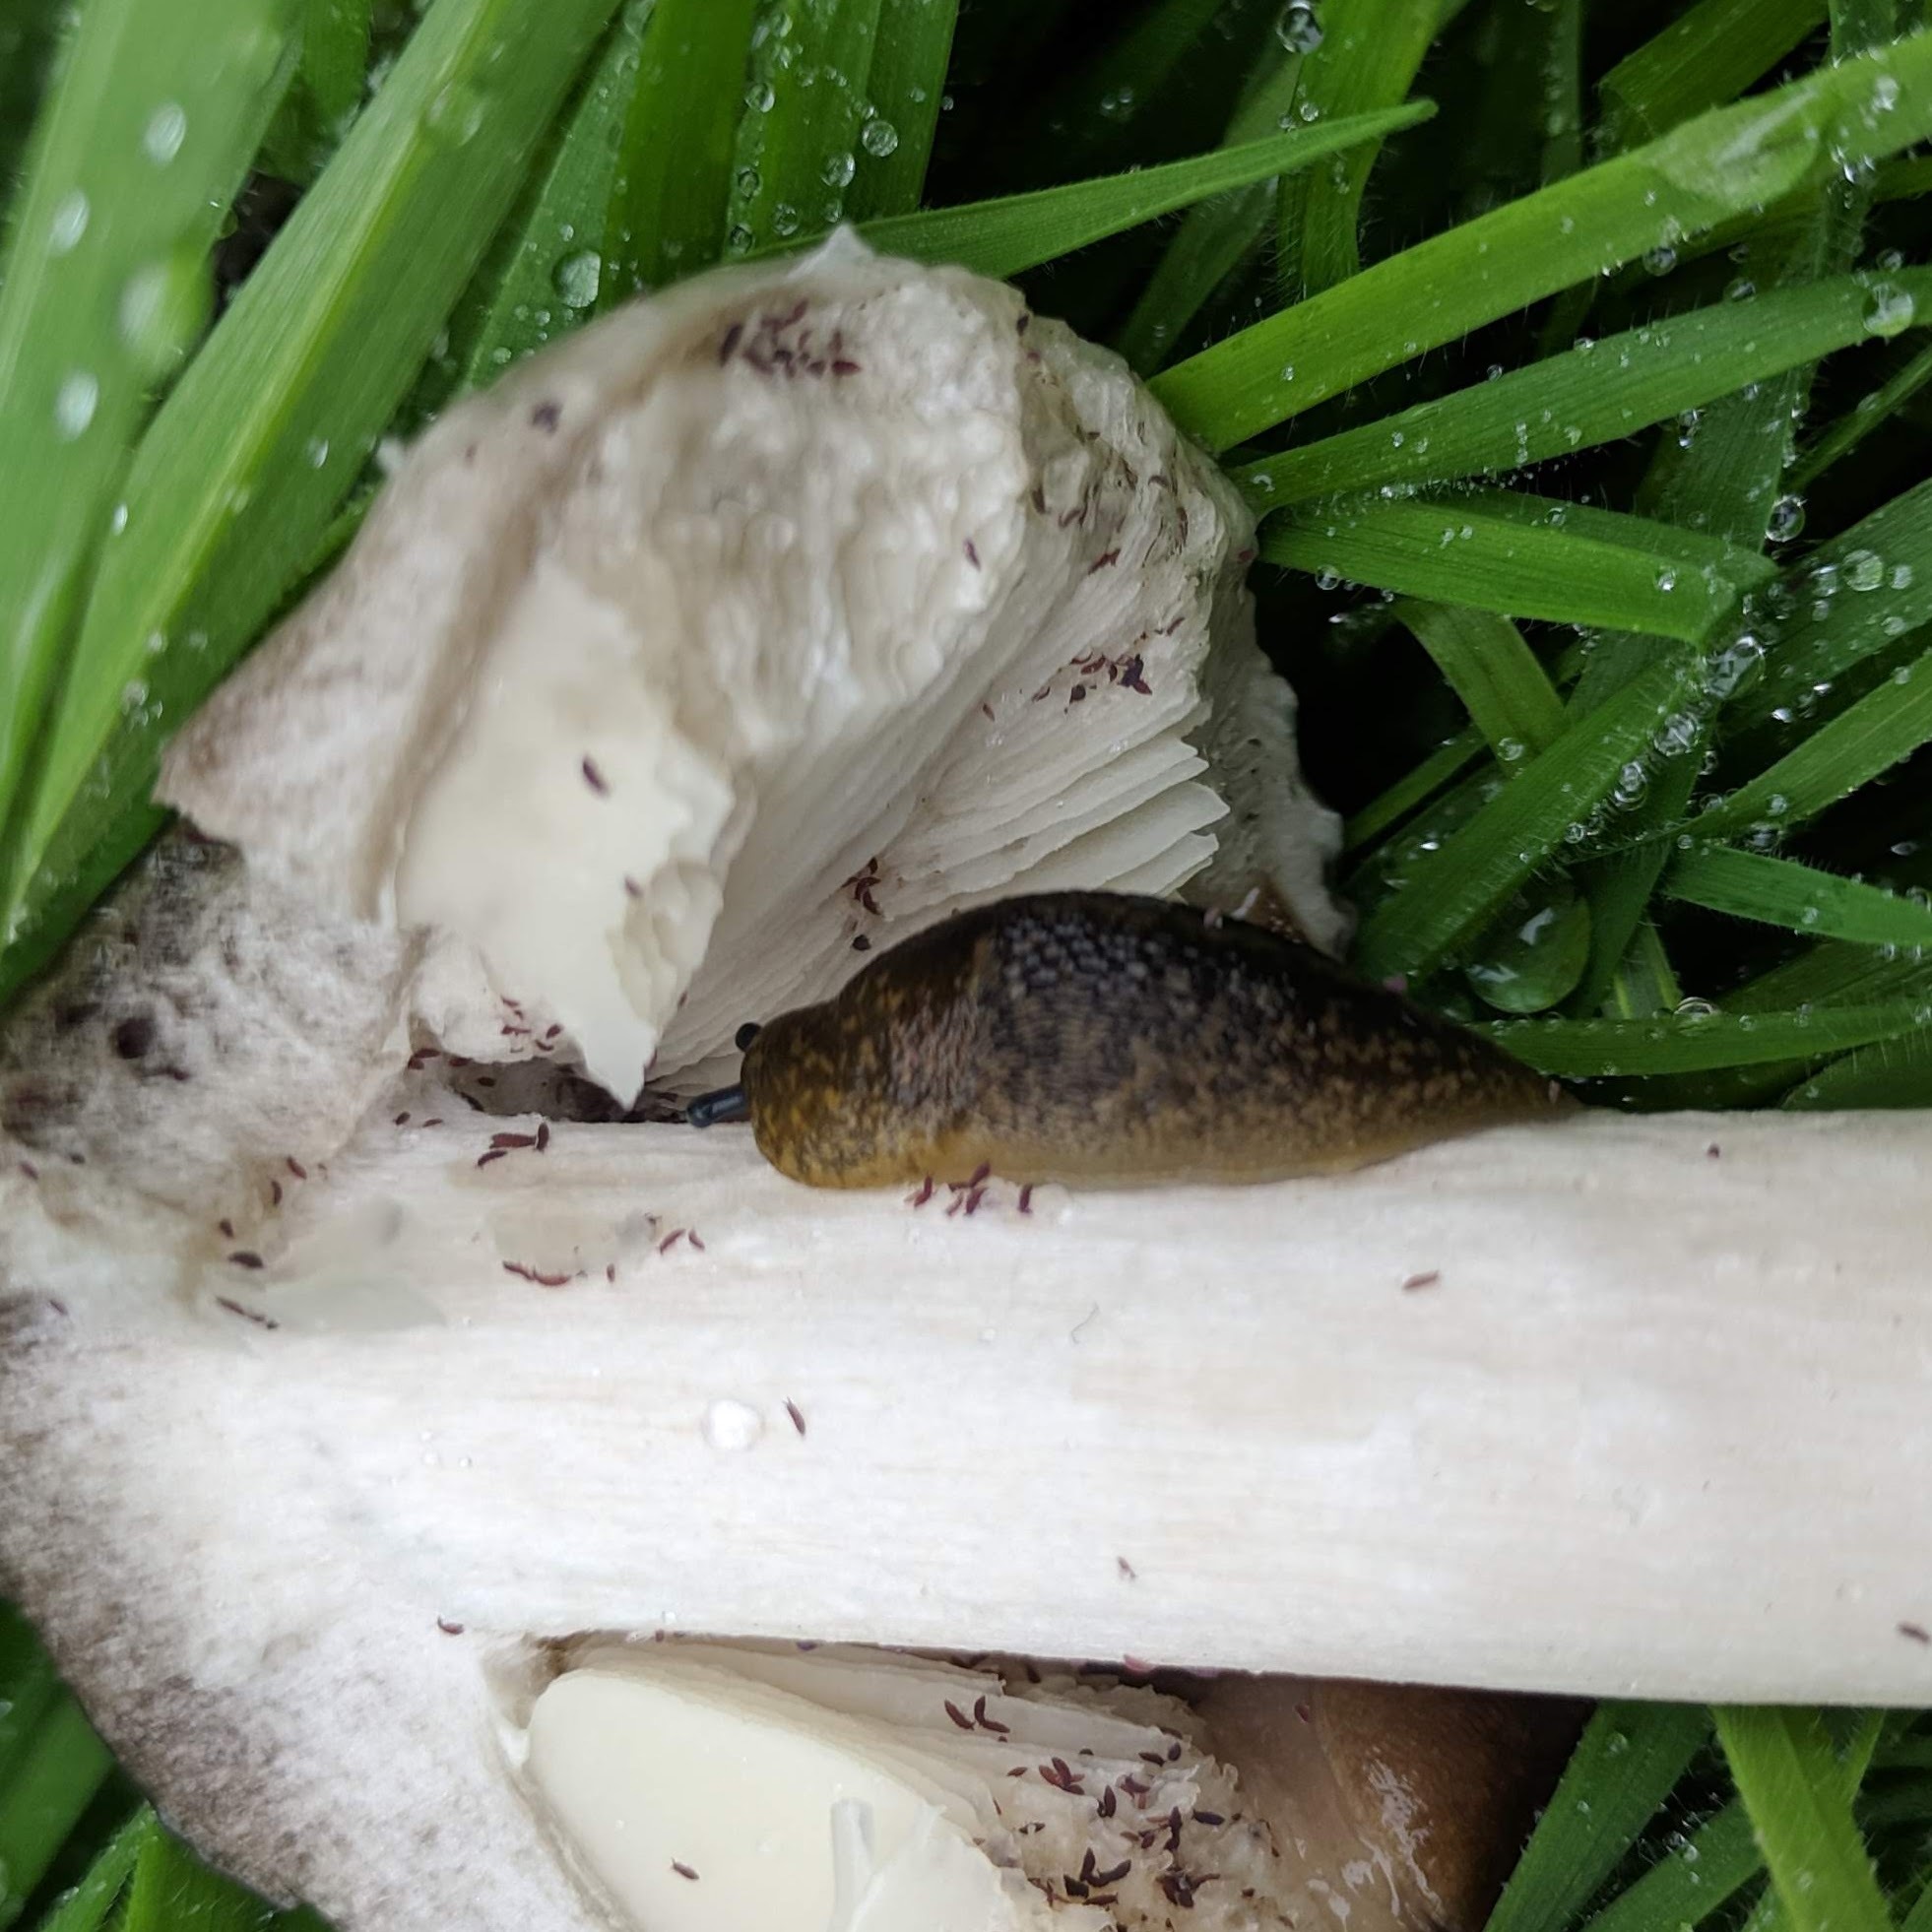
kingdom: Animalia
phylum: Mollusca
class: Gastropoda
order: Stylommatophora
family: Limacidae
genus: Limacus
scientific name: Limacus flavus
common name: Yellow gardenslug
